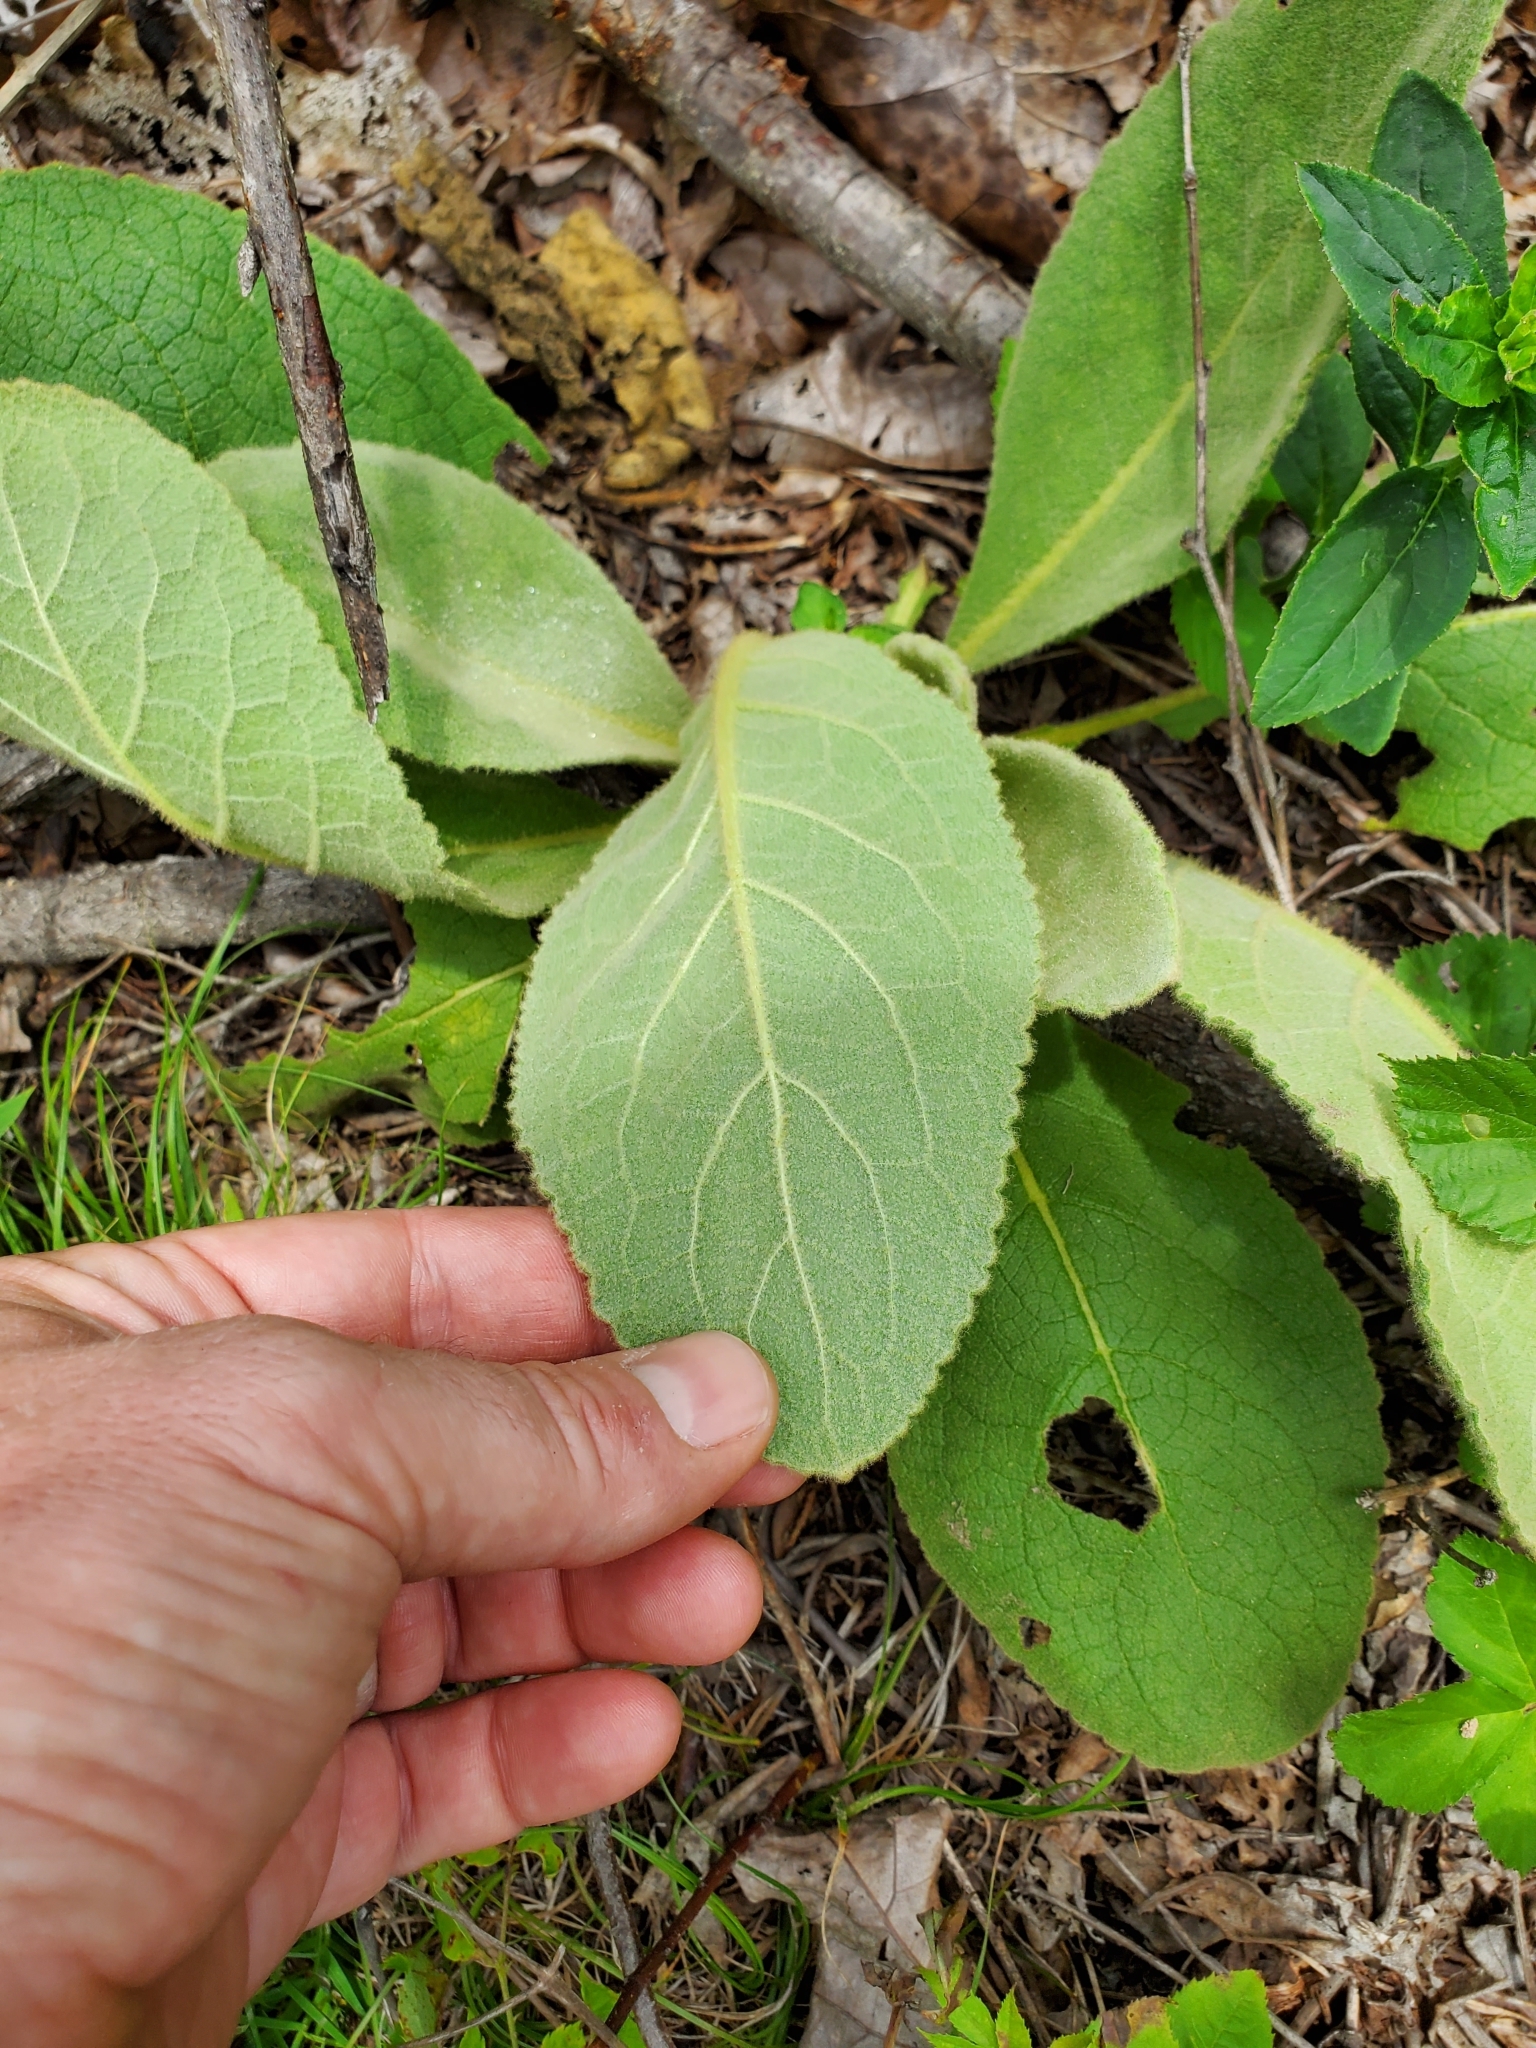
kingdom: Plantae
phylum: Tracheophyta
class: Magnoliopsida
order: Lamiales
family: Scrophulariaceae
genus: Verbascum
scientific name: Verbascum thapsus
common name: Common mullein
